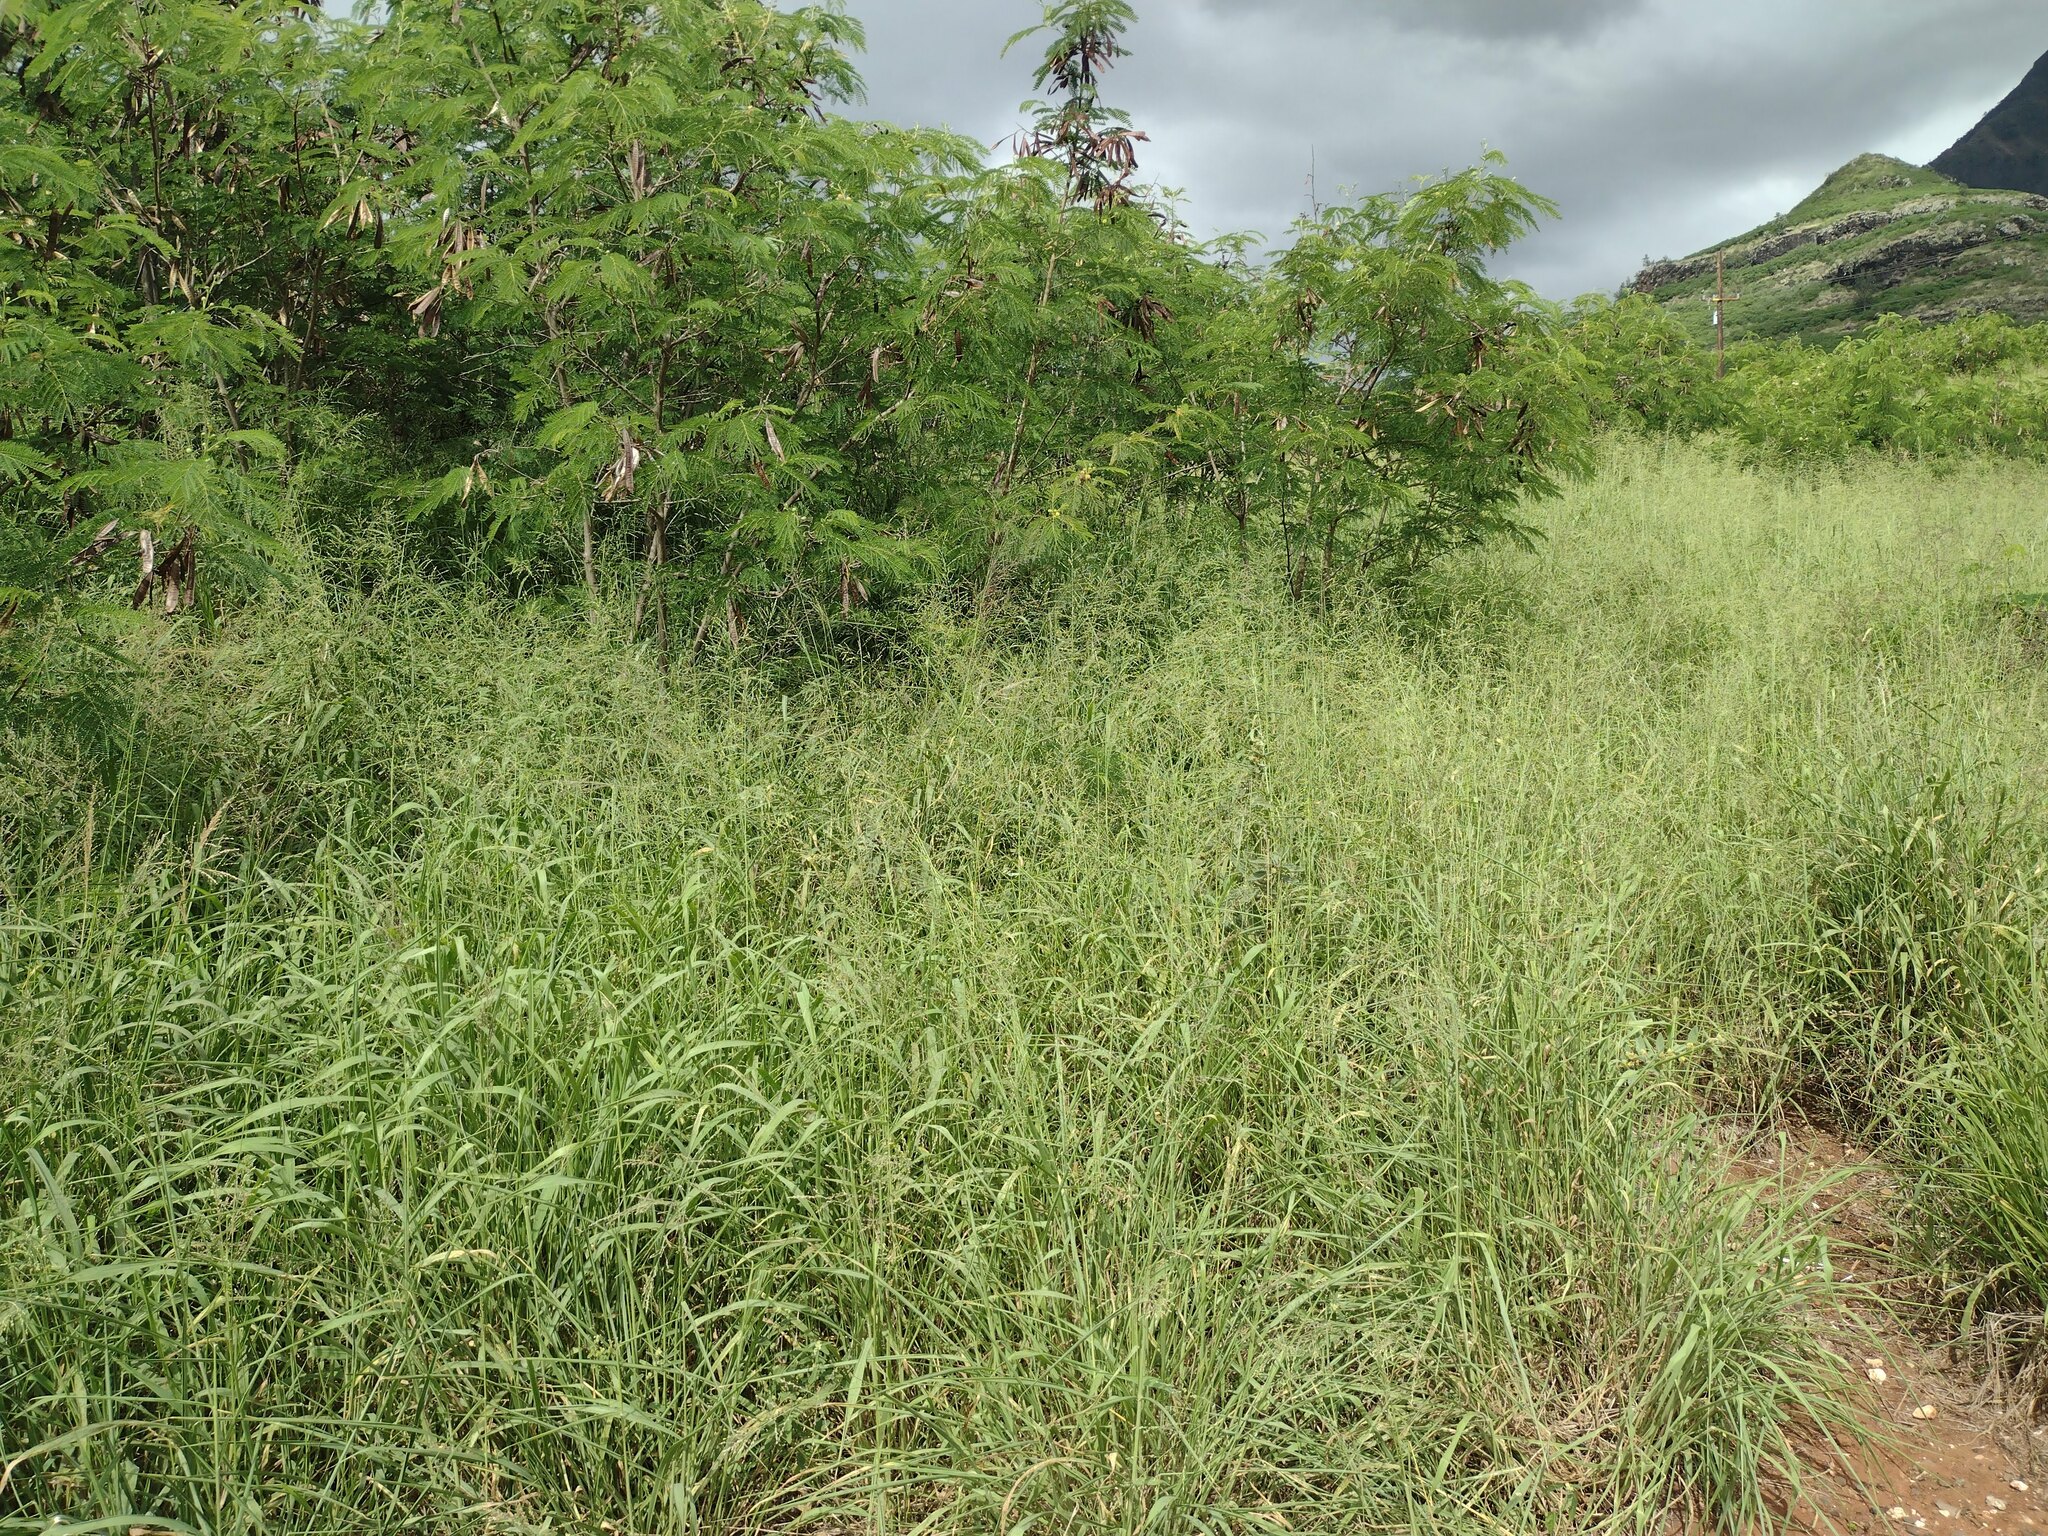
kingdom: Plantae
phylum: Tracheophyta
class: Liliopsida
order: Poales
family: Poaceae
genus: Megathyrsus
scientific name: Megathyrsus maximus
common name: Guineagrass
